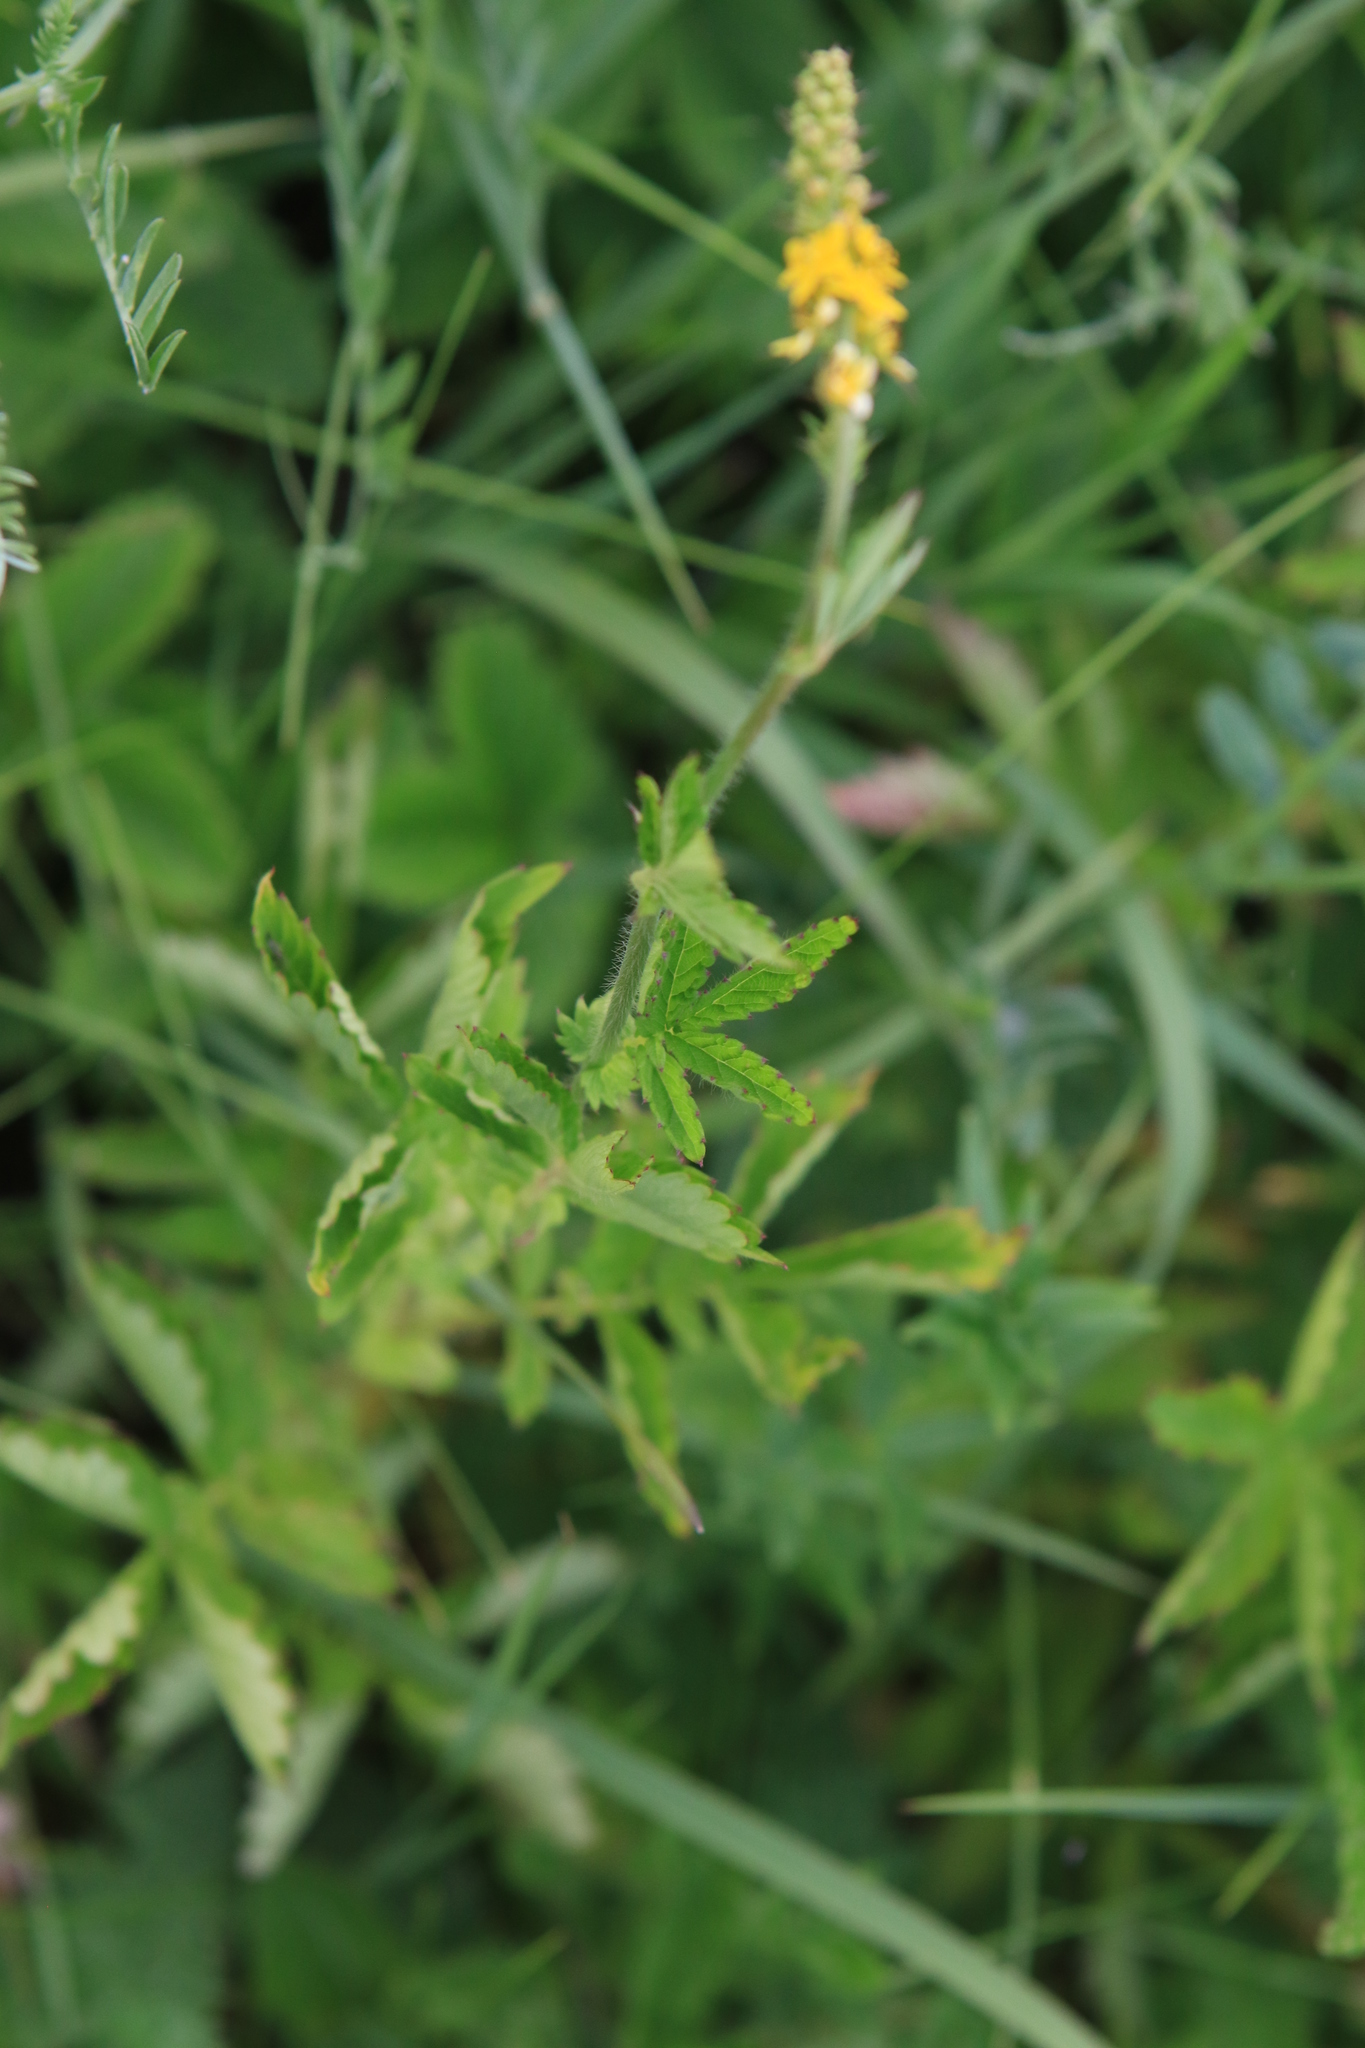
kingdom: Plantae
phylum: Tracheophyta
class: Magnoliopsida
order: Rosales
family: Rosaceae
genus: Agrimonia
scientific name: Agrimonia pilosa
